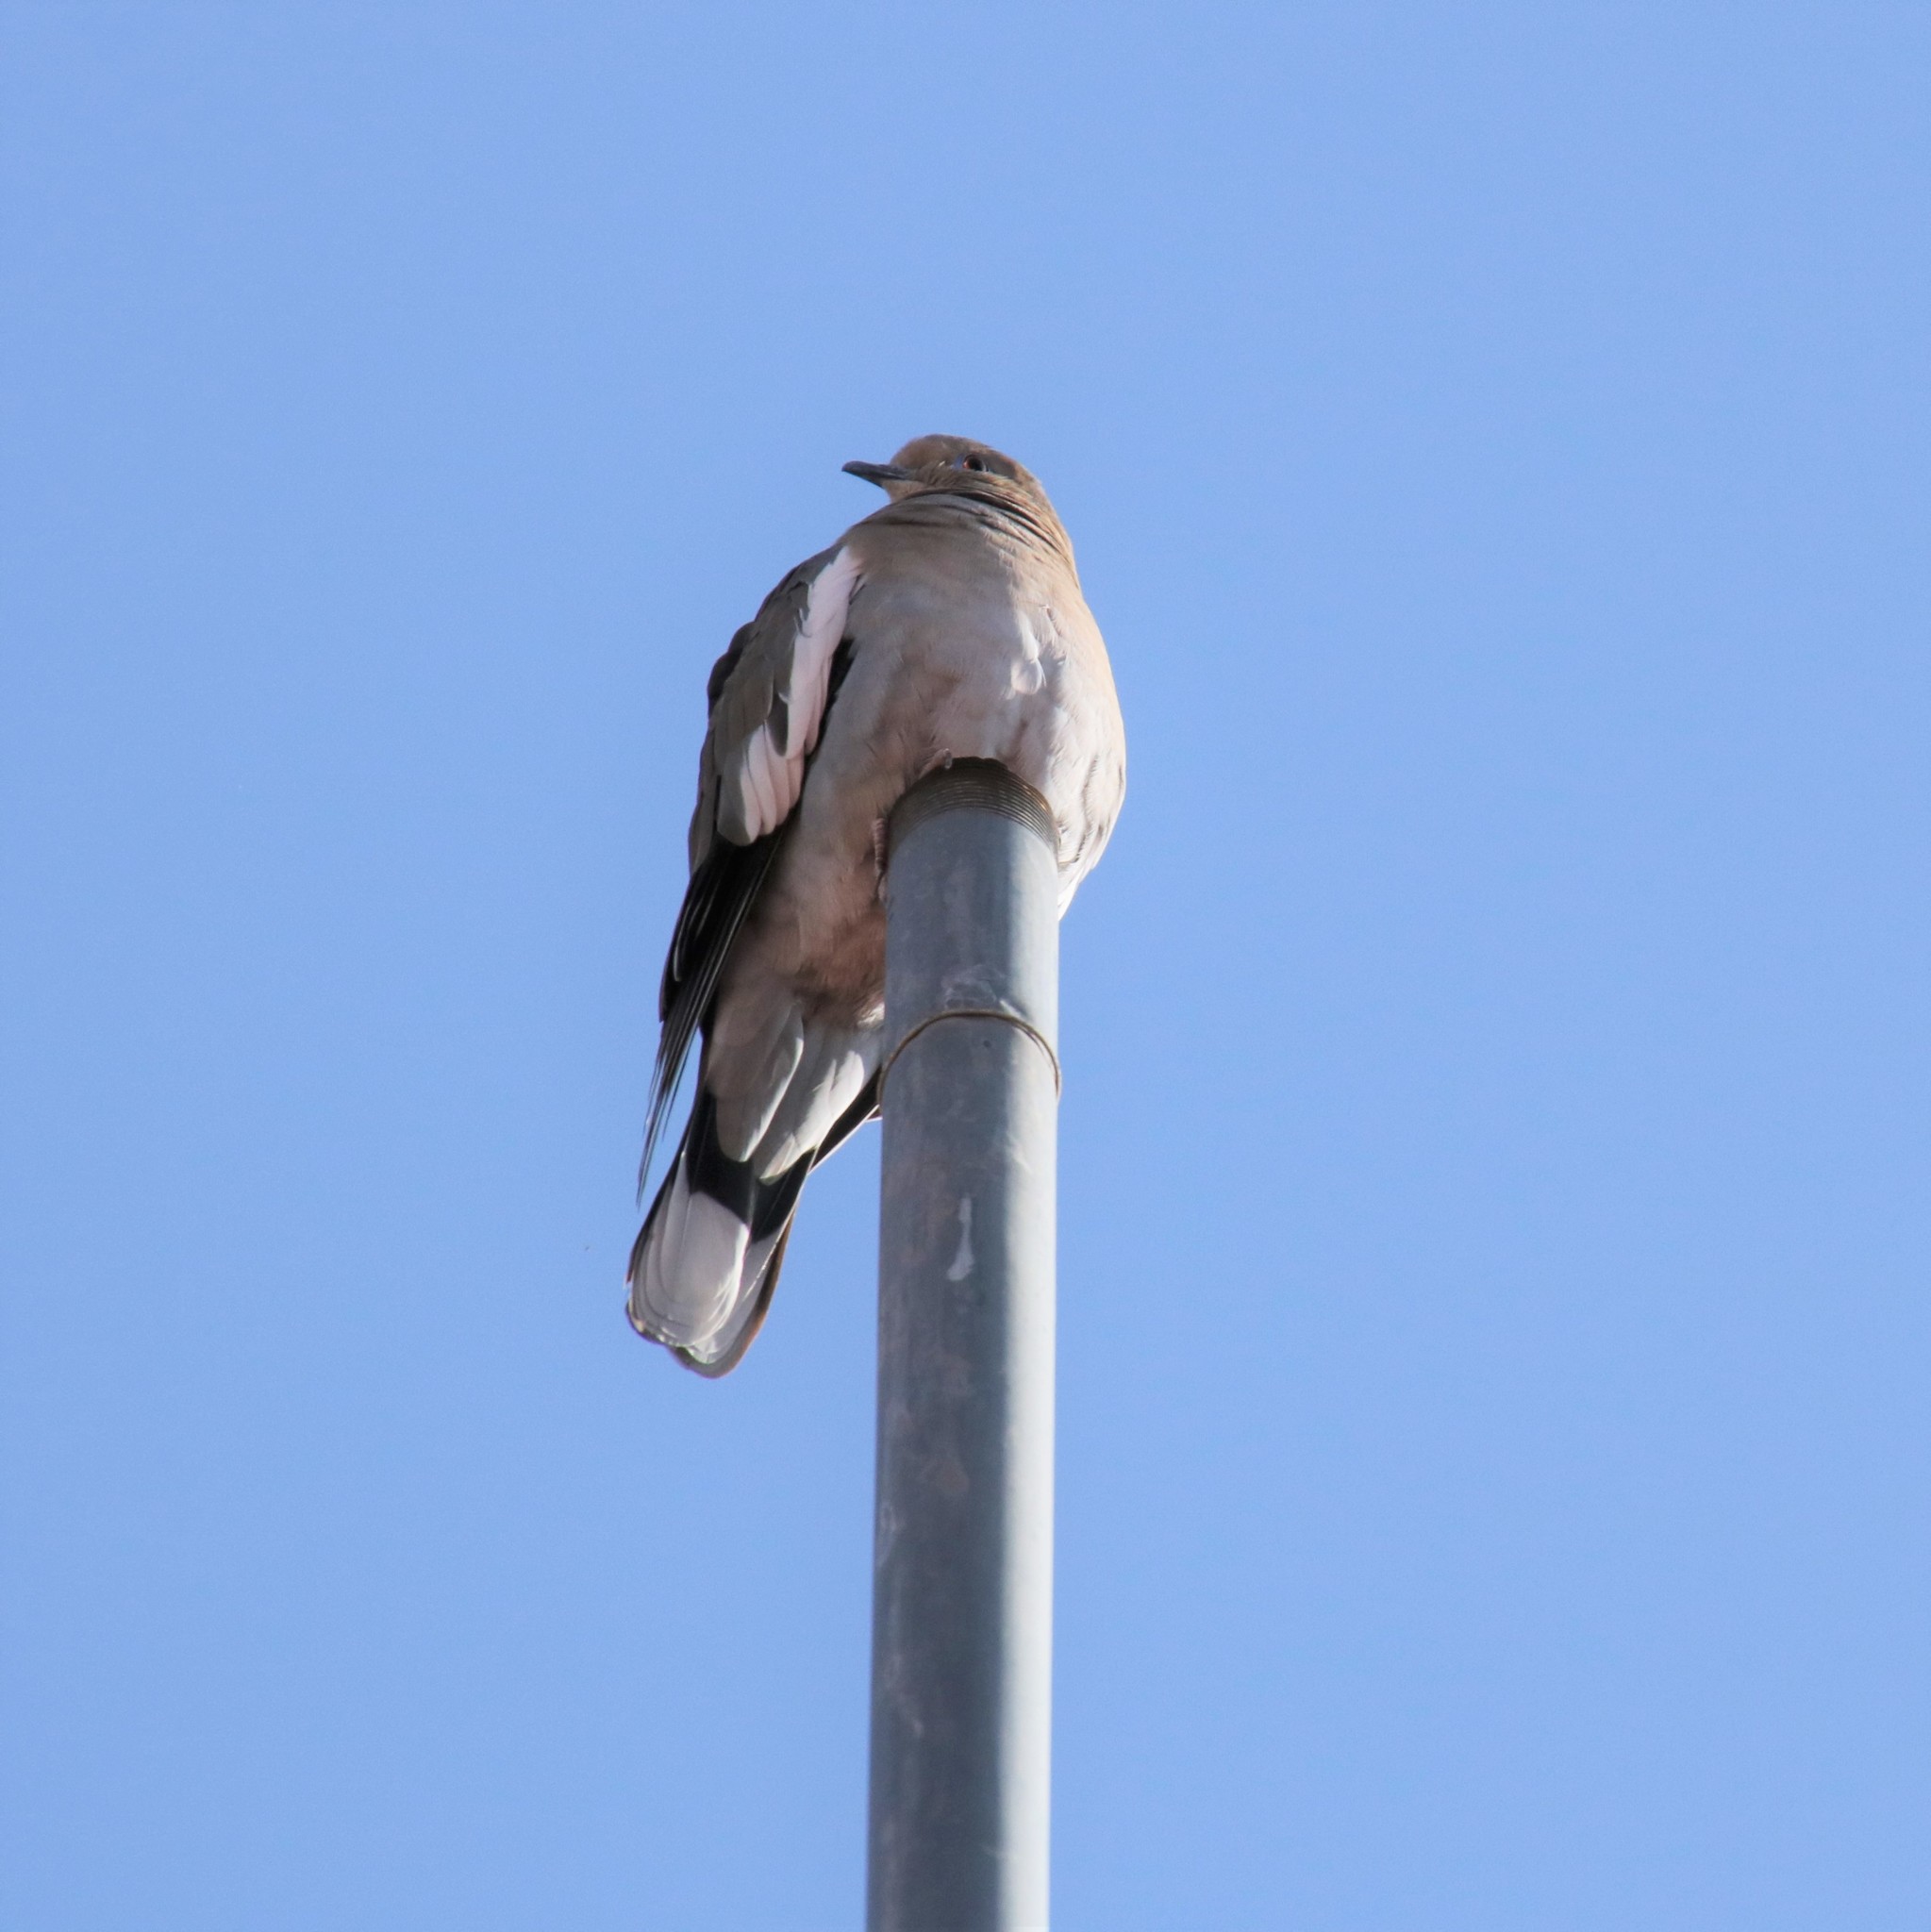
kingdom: Animalia
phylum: Chordata
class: Aves
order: Columbiformes
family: Columbidae
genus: Zenaida
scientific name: Zenaida asiatica
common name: White-winged dove
